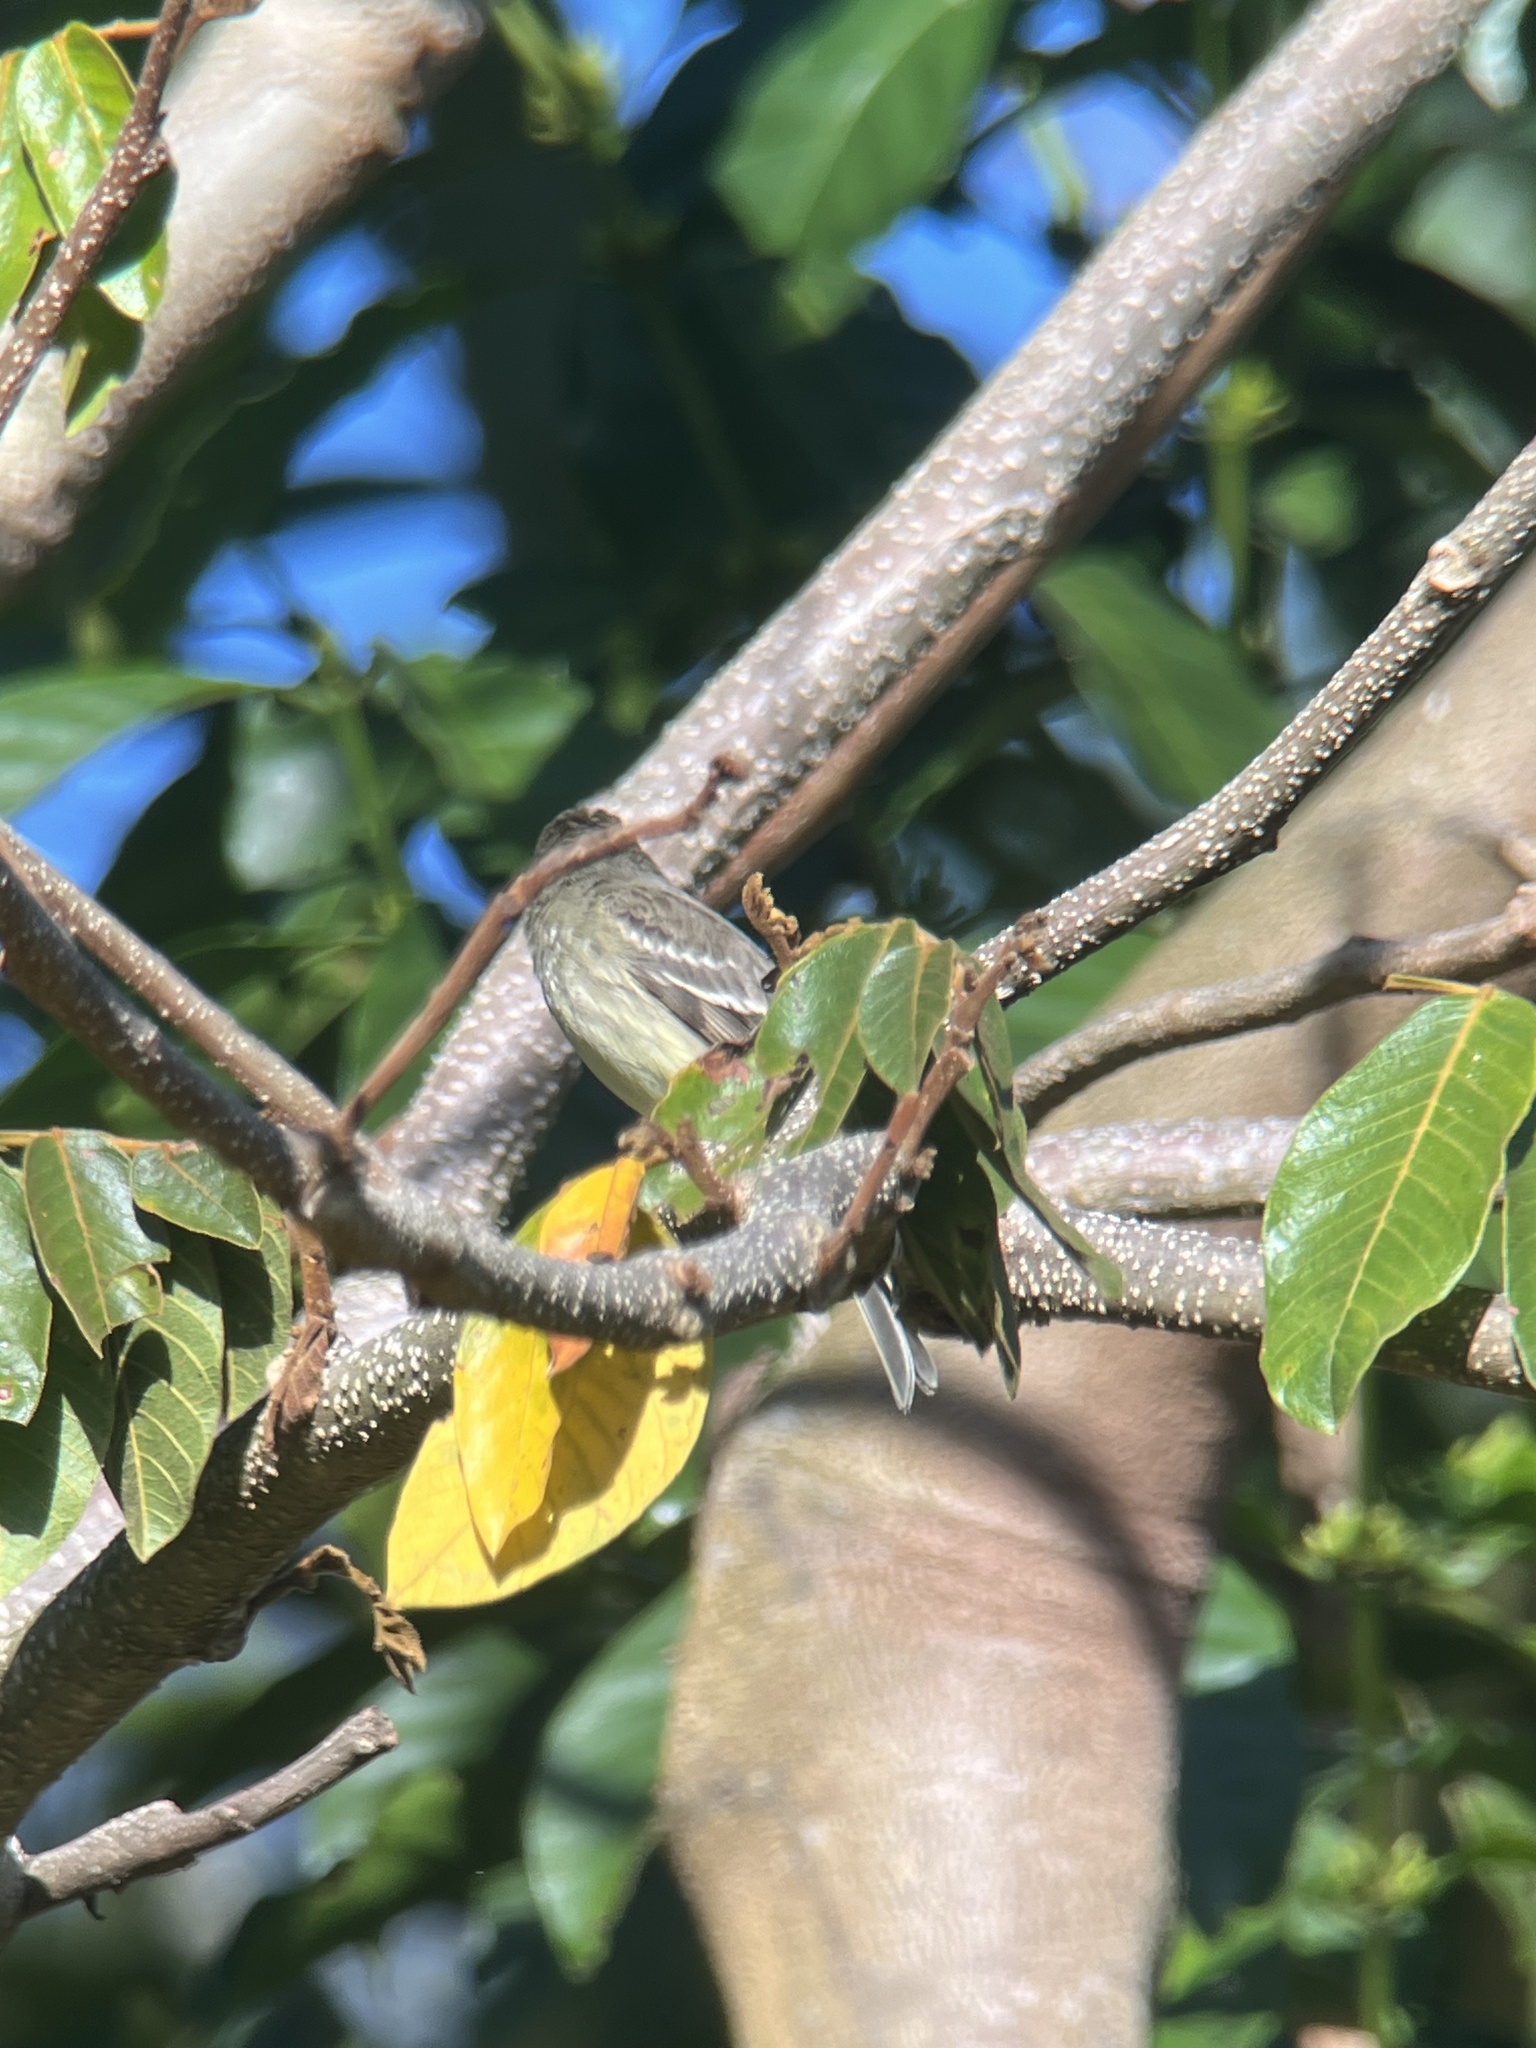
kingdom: Animalia
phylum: Chordata
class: Aves
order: Passeriformes
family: Tyrannidae
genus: Elaenia
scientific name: Elaenia chiriquensis
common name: Lesser elaenia
